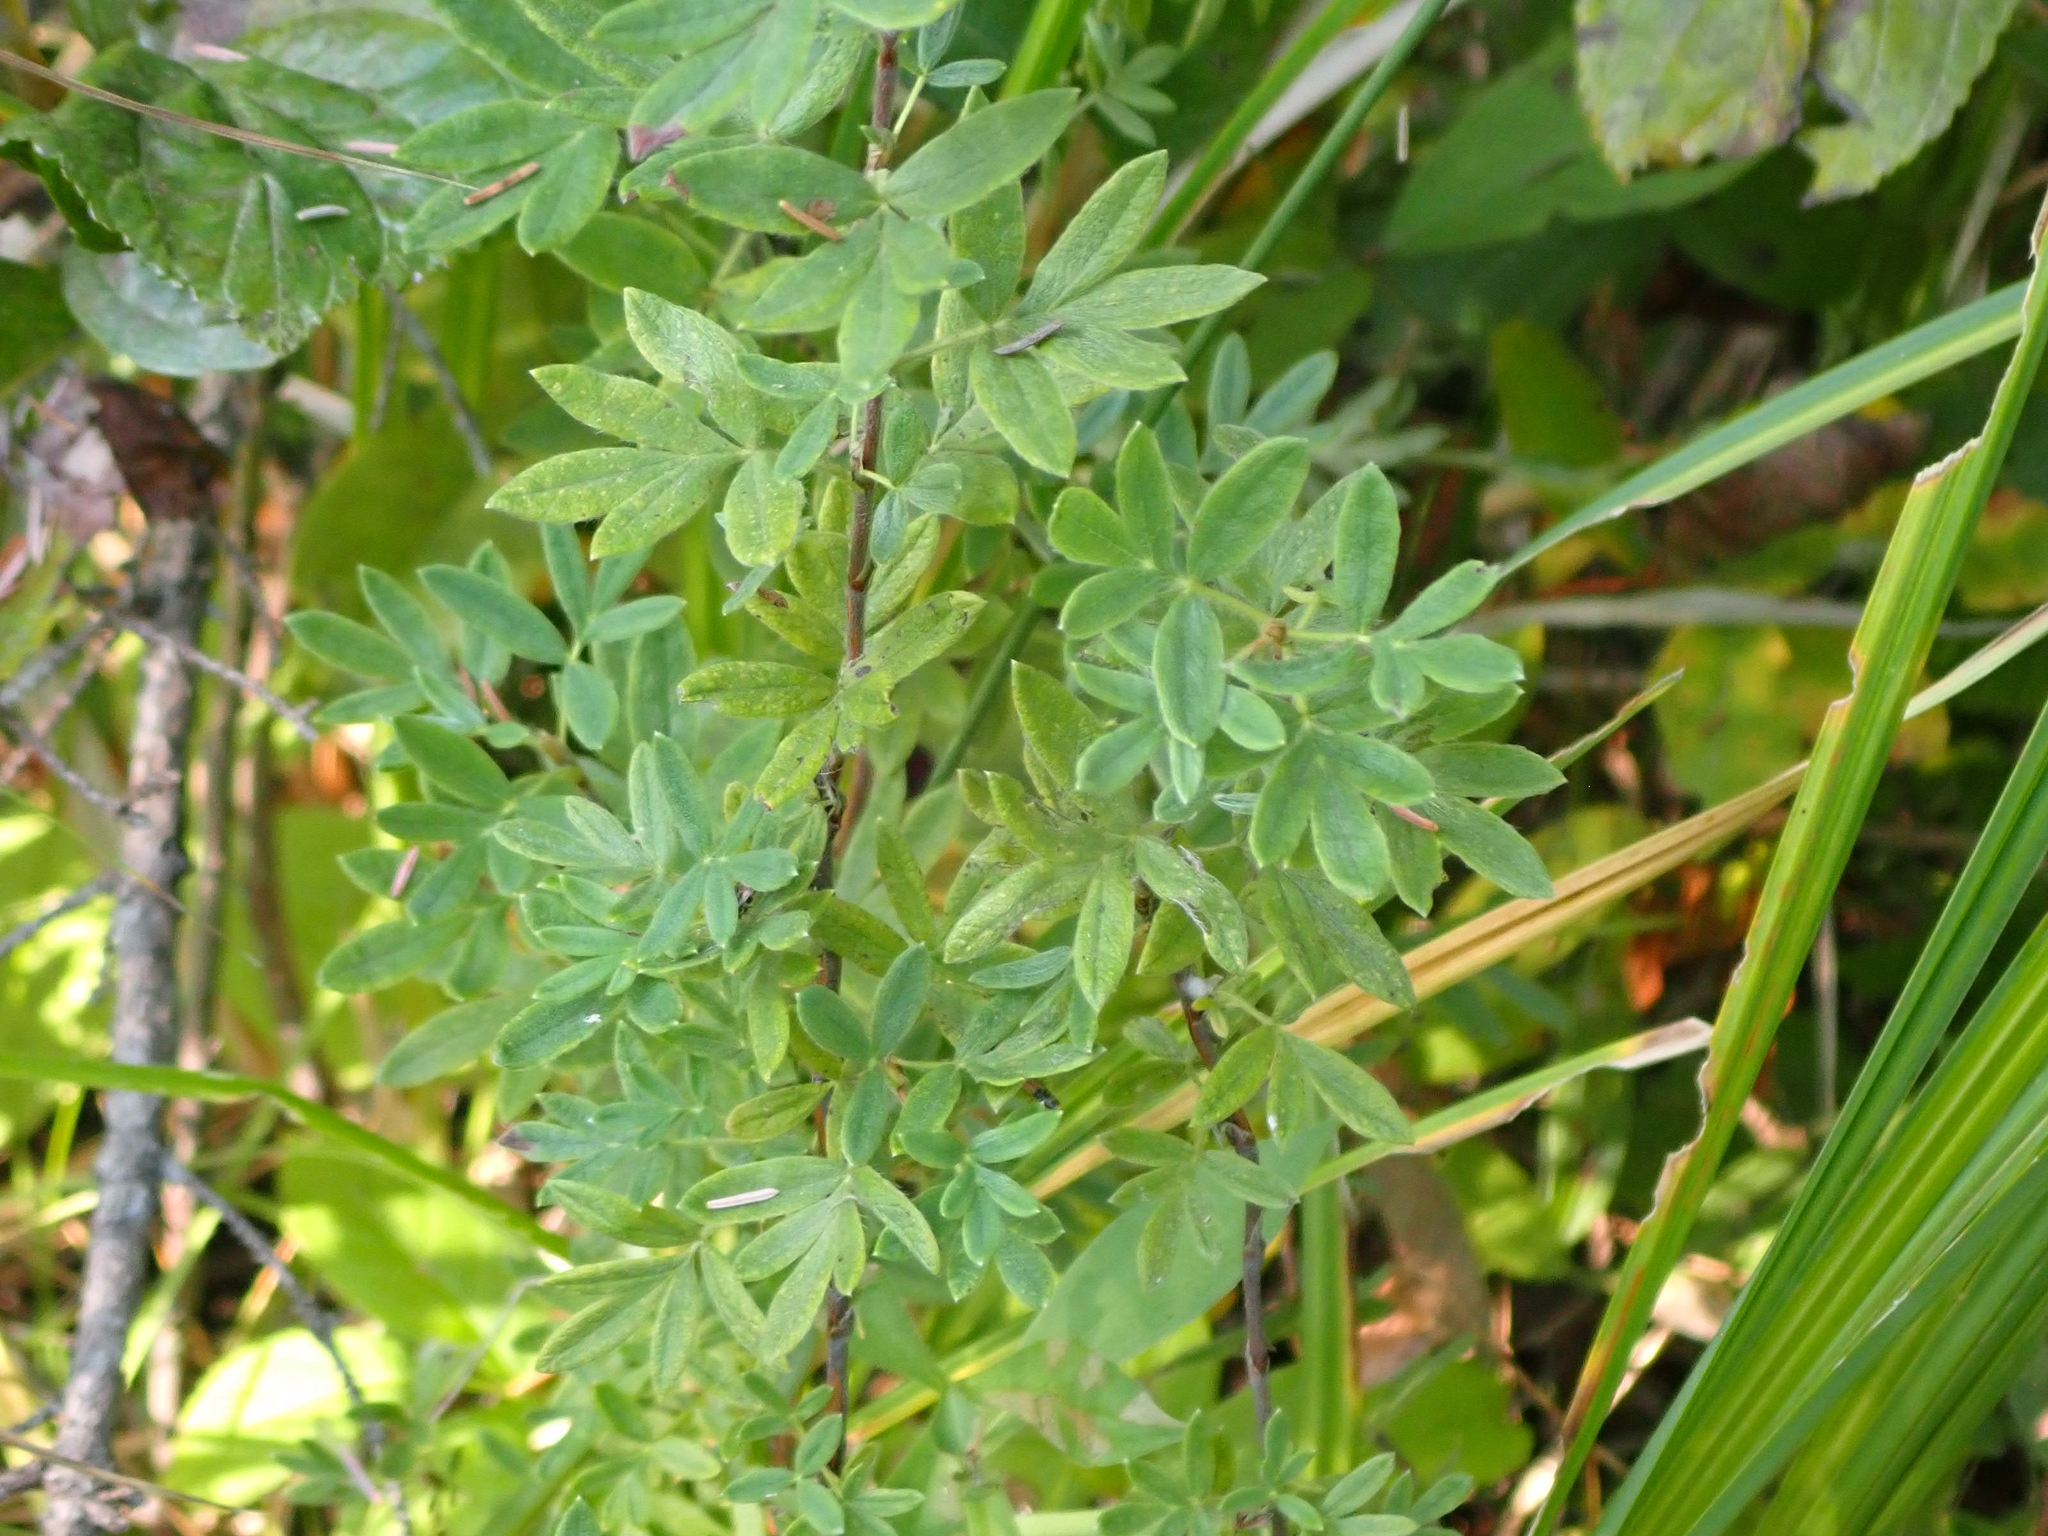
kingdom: Plantae
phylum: Tracheophyta
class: Magnoliopsida
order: Rosales
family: Rosaceae
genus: Dasiphora
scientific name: Dasiphora fruticosa
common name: Shrubby cinquefoil
